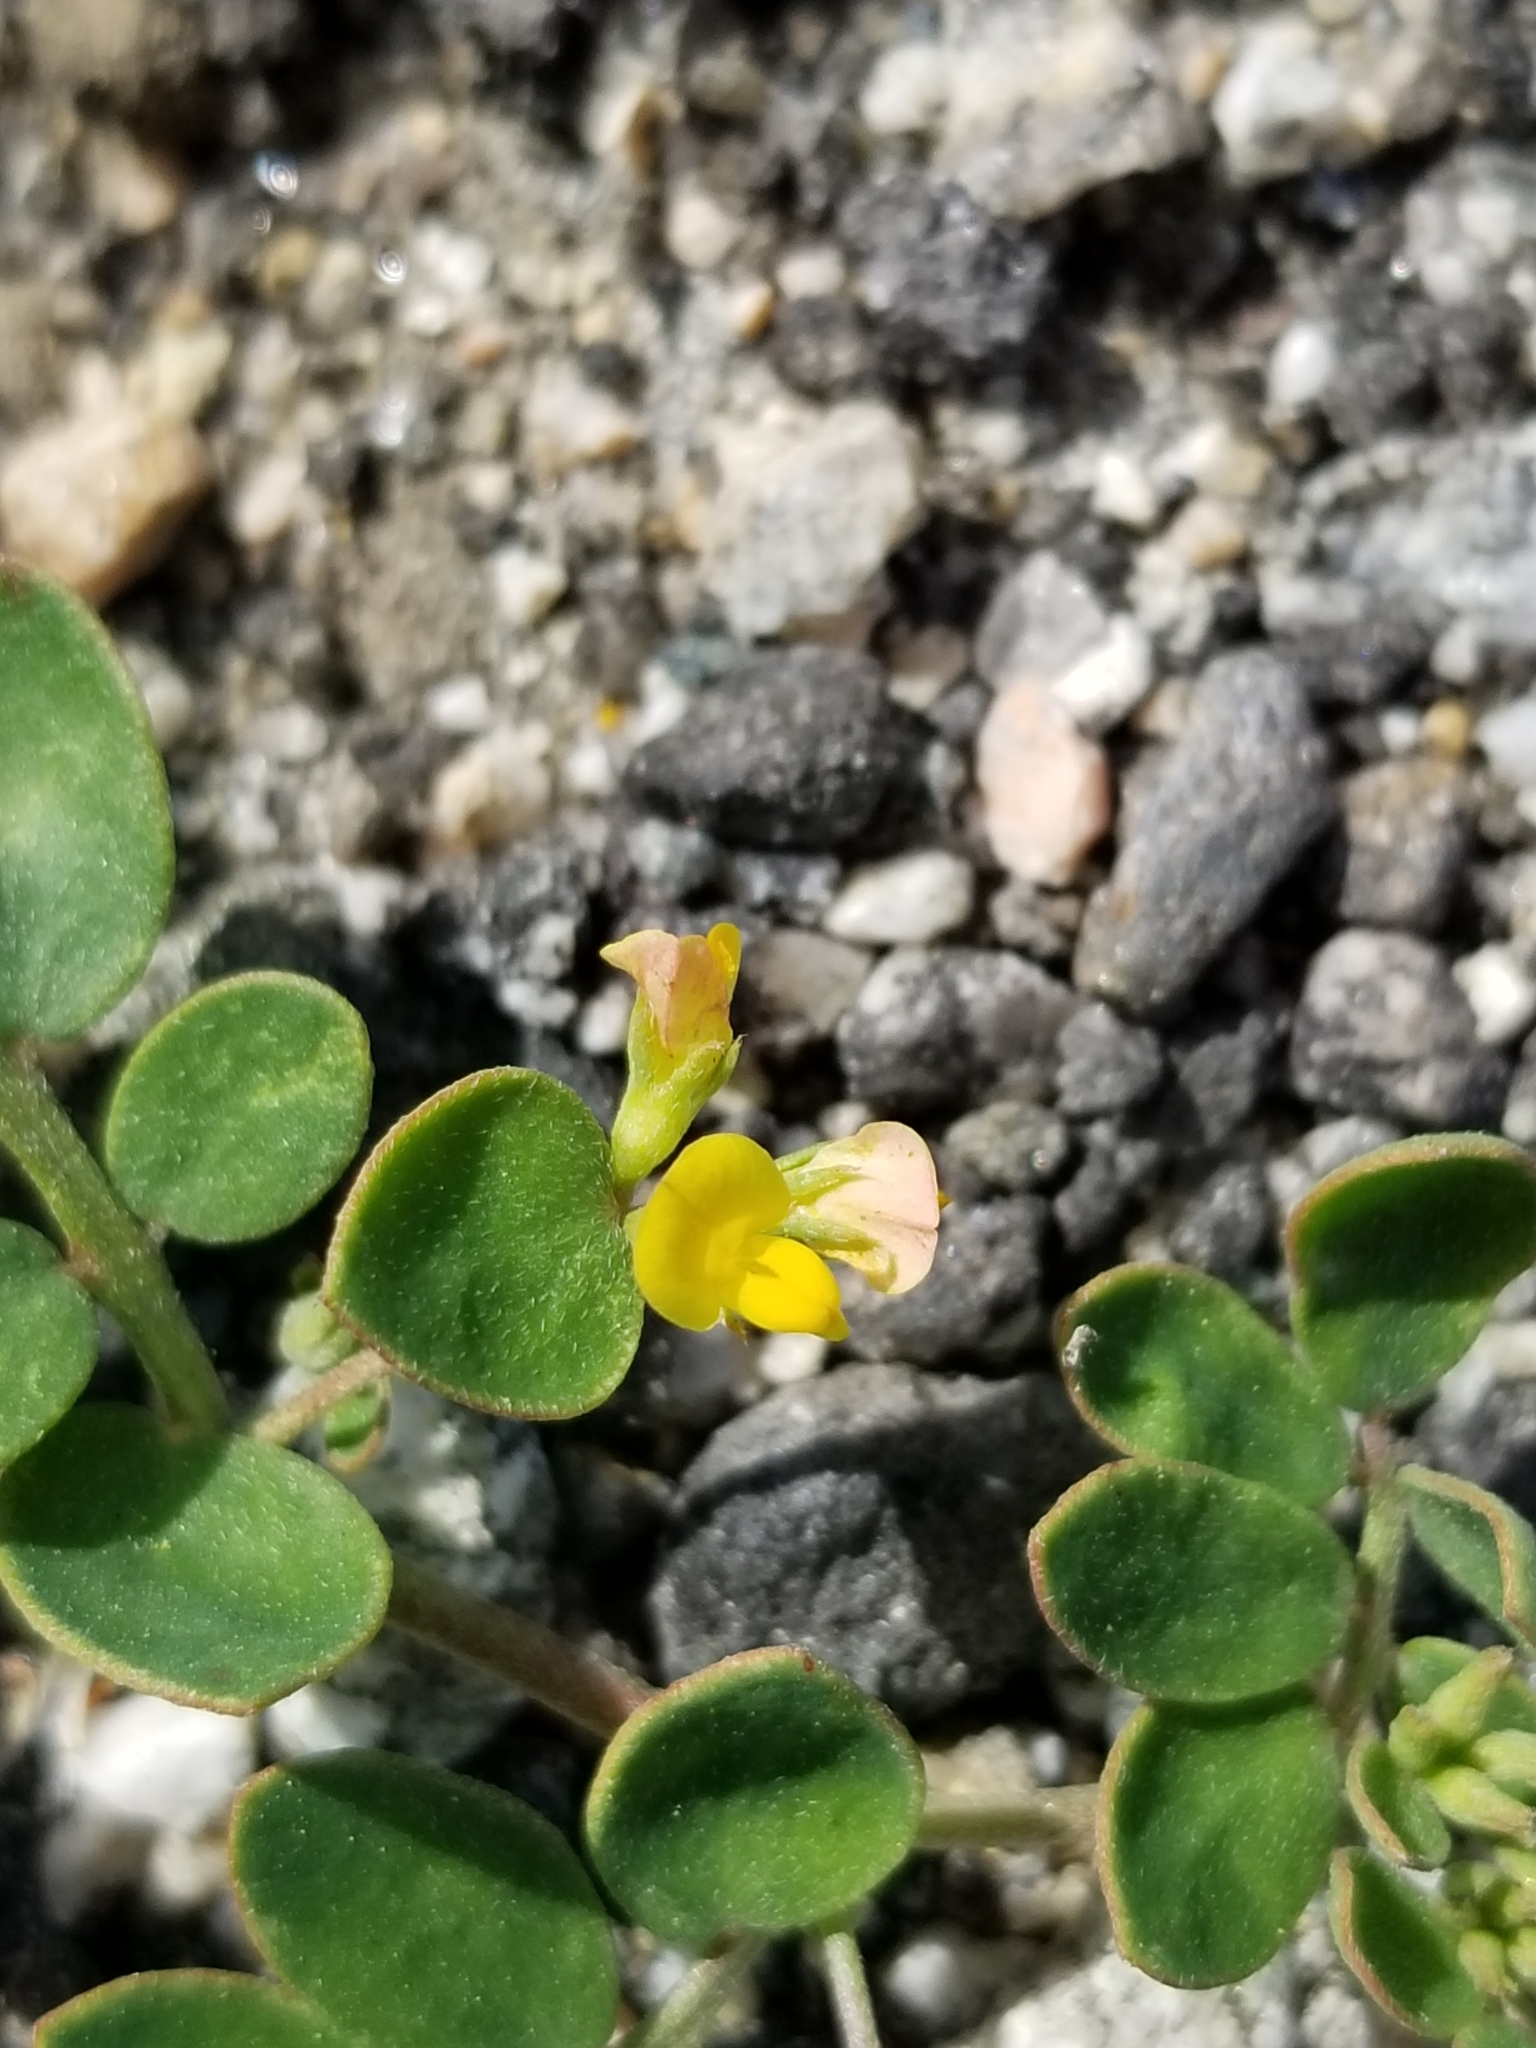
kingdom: Plantae
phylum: Tracheophyta
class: Magnoliopsida
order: Fabales
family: Fabaceae
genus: Acmispon
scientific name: Acmispon maritimus
